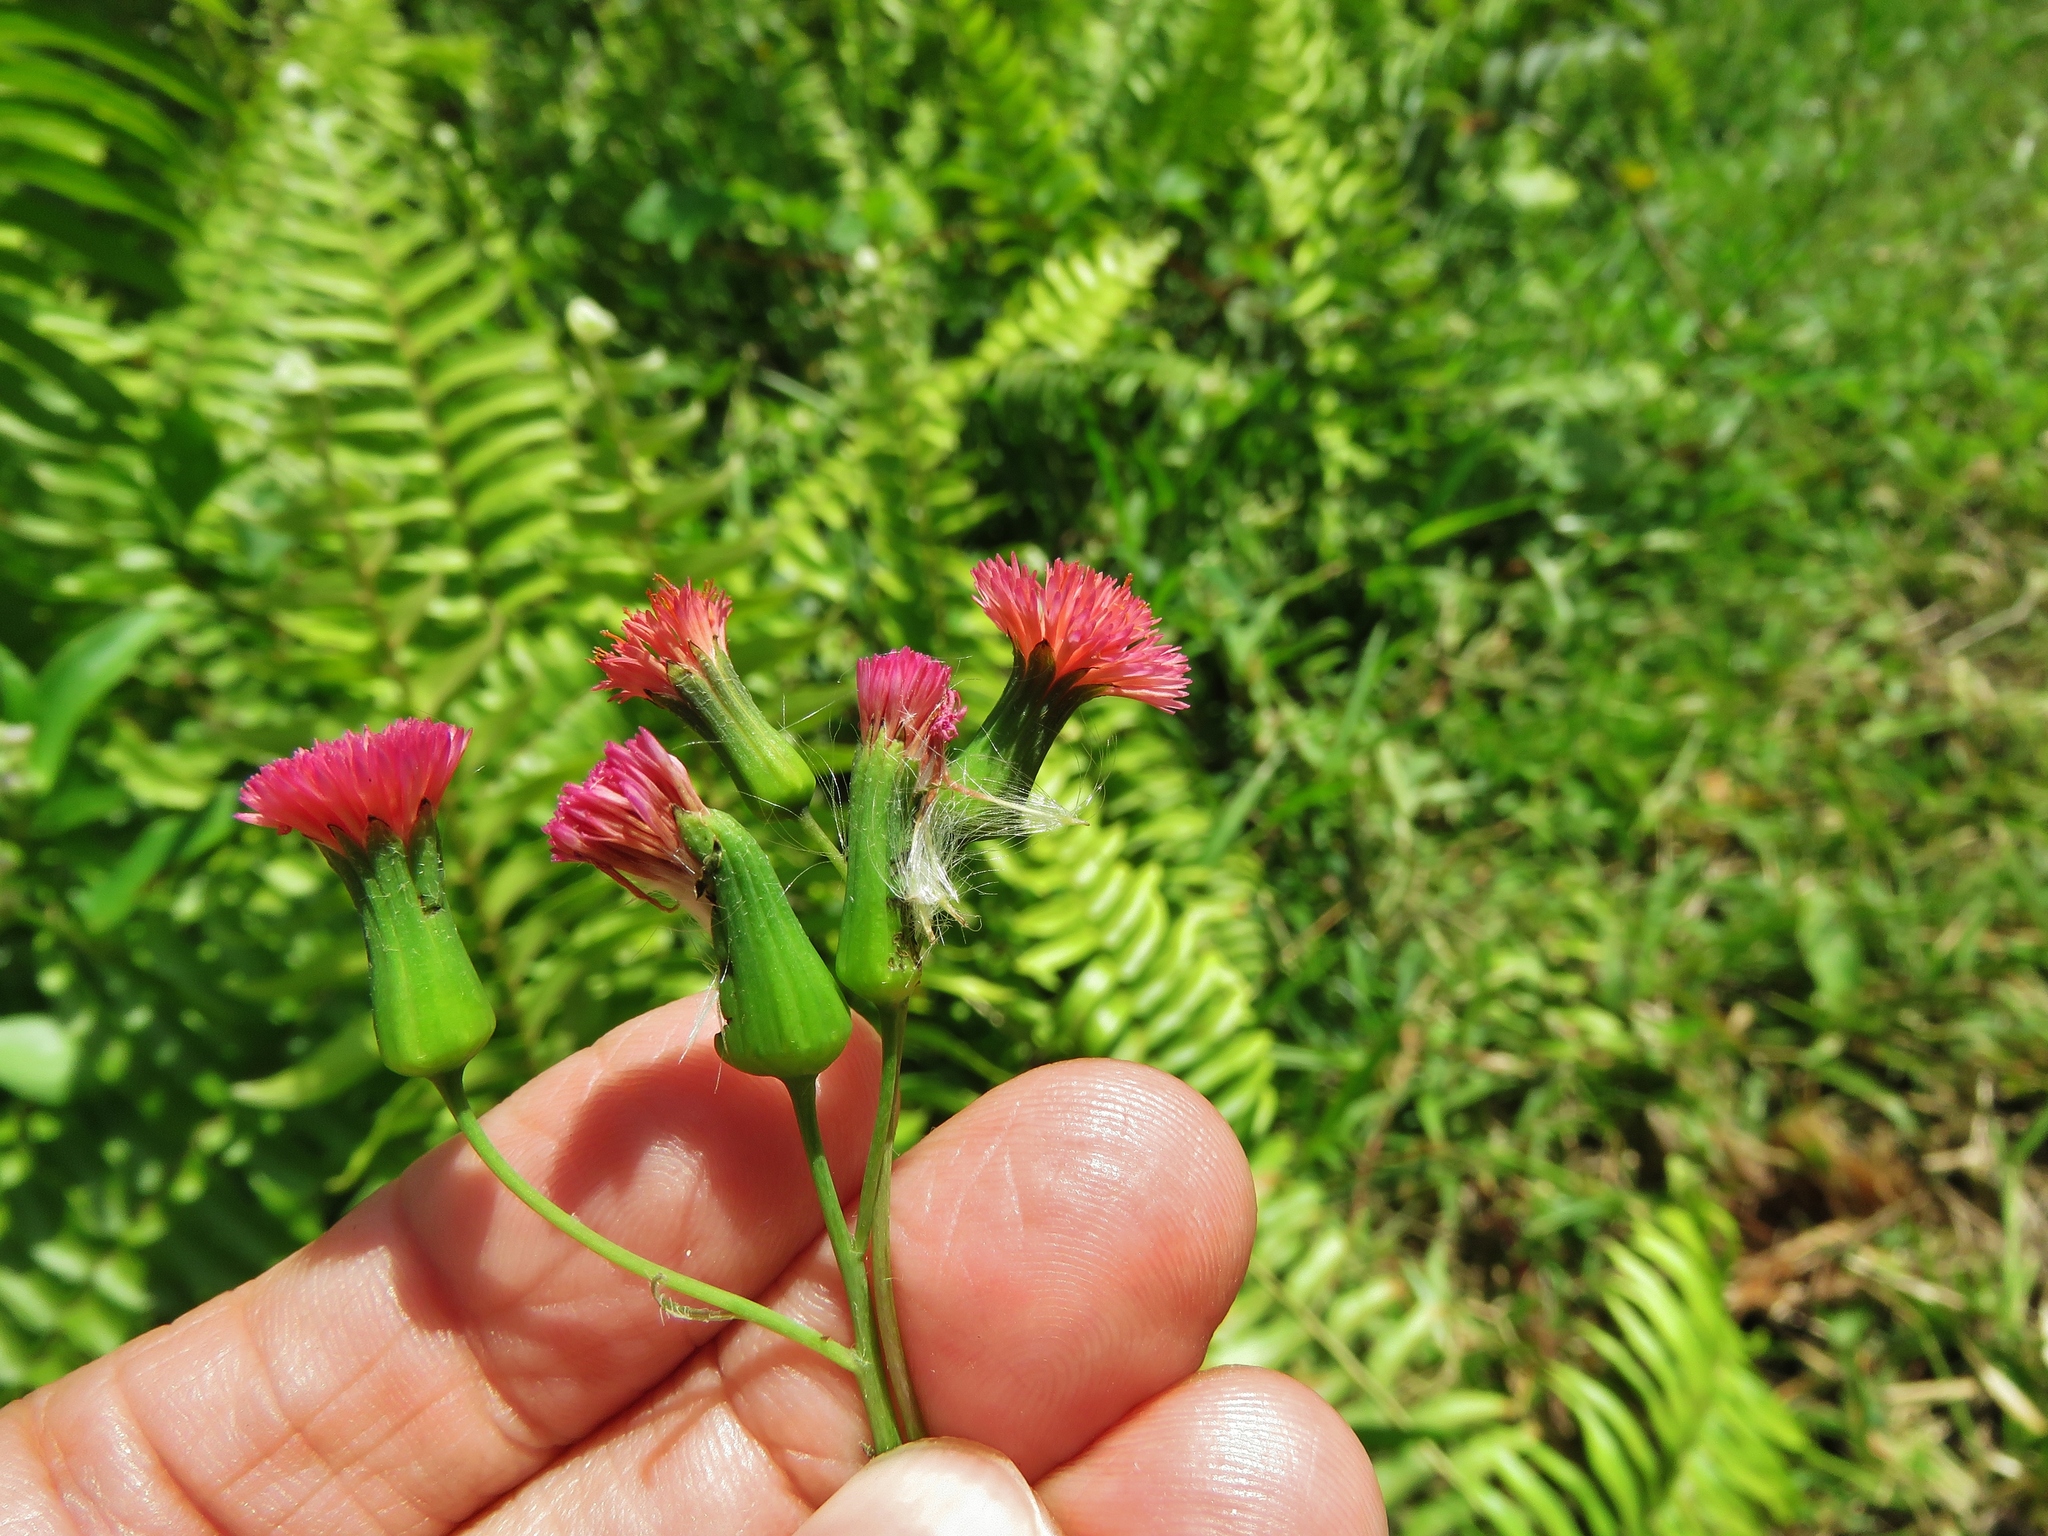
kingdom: Plantae
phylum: Tracheophyta
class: Magnoliopsida
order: Asterales
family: Asteraceae
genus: Emilia
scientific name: Emilia fosbergii
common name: Florida tasselflower
